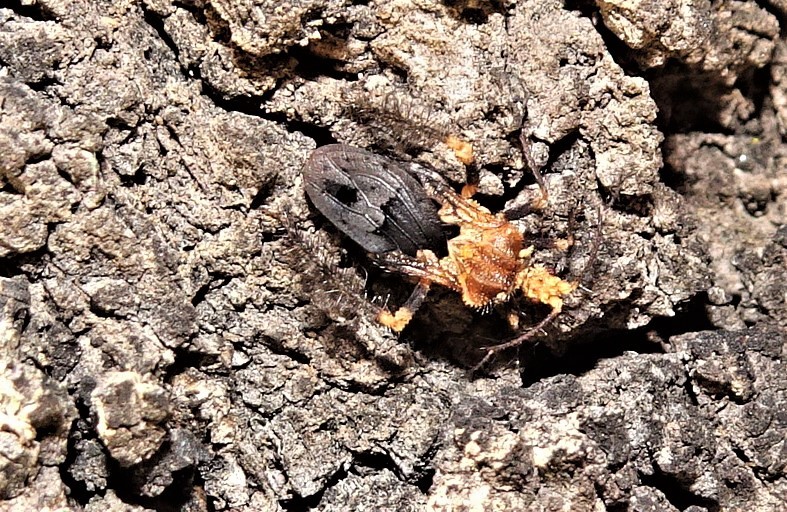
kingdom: Animalia
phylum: Arthropoda
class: Insecta
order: Hemiptera
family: Reduviidae
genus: Ptilocnemus
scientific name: Ptilocnemus femoralis
